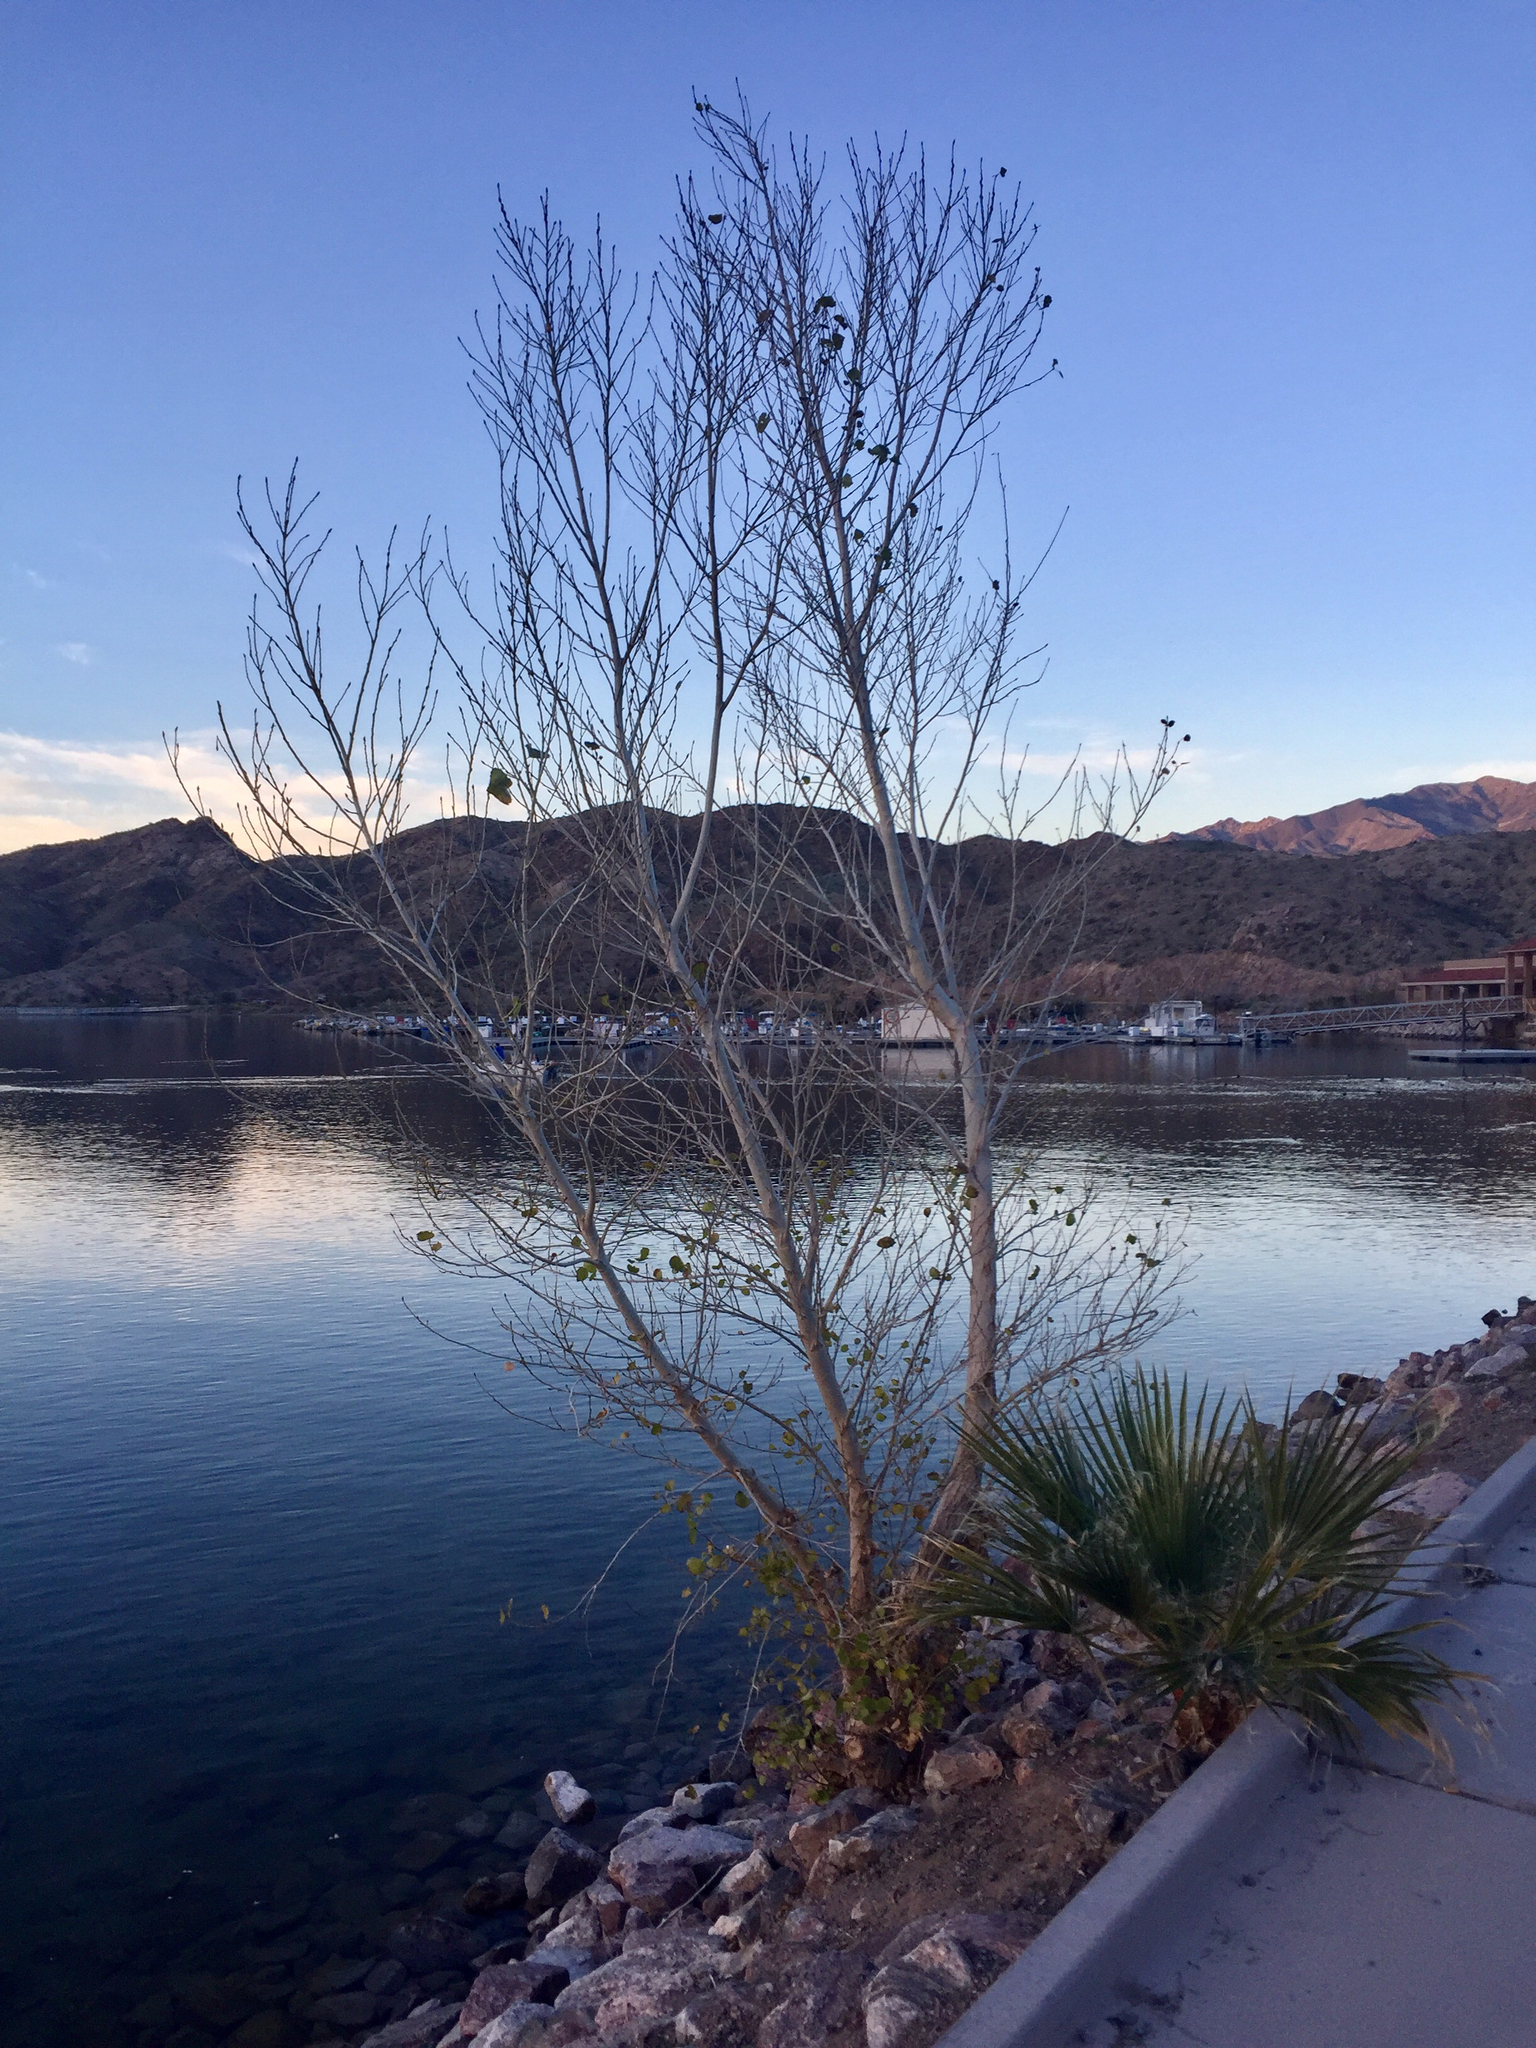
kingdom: Plantae
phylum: Tracheophyta
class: Magnoliopsida
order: Malpighiales
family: Salicaceae
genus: Populus
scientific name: Populus fremontii
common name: Fremont's cottonwood
